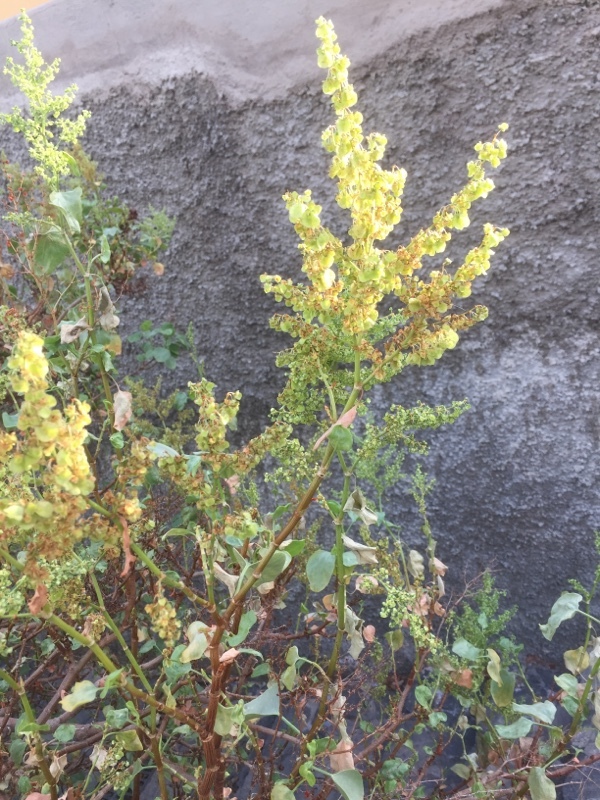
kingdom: Plantae
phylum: Tracheophyta
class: Magnoliopsida
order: Caryophyllales
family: Polygonaceae
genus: Rumex
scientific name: Rumex lunaria
